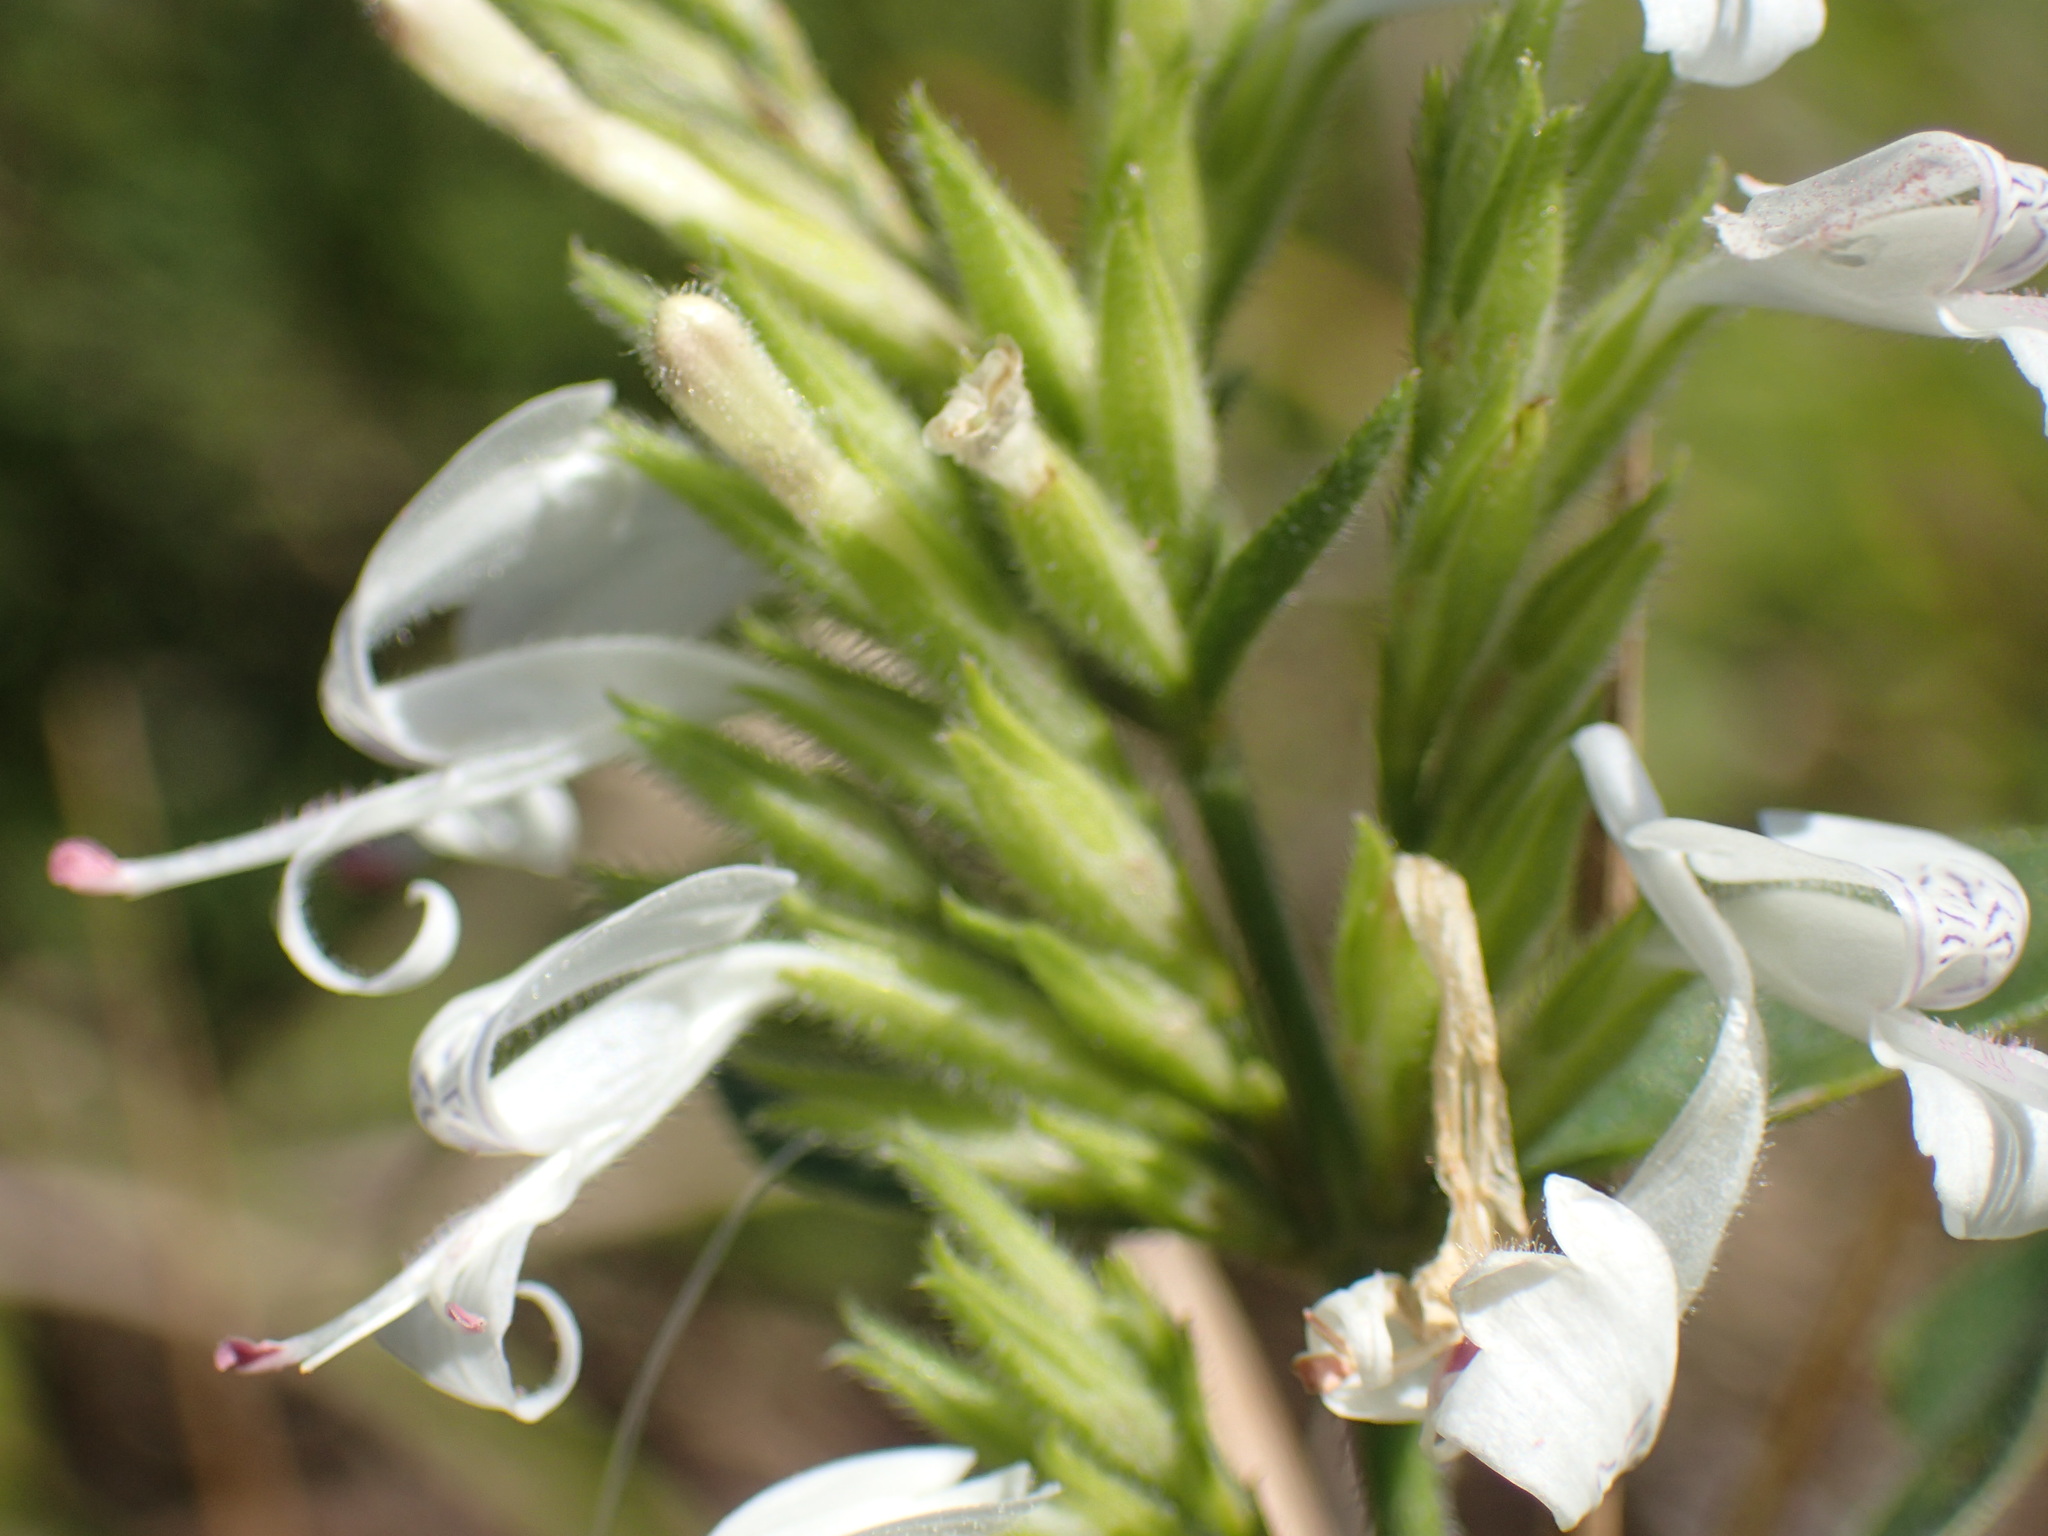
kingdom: Plantae
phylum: Tracheophyta
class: Magnoliopsida
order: Lamiales
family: Acanthaceae
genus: Hypoestes
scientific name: Hypoestes forskaolii
